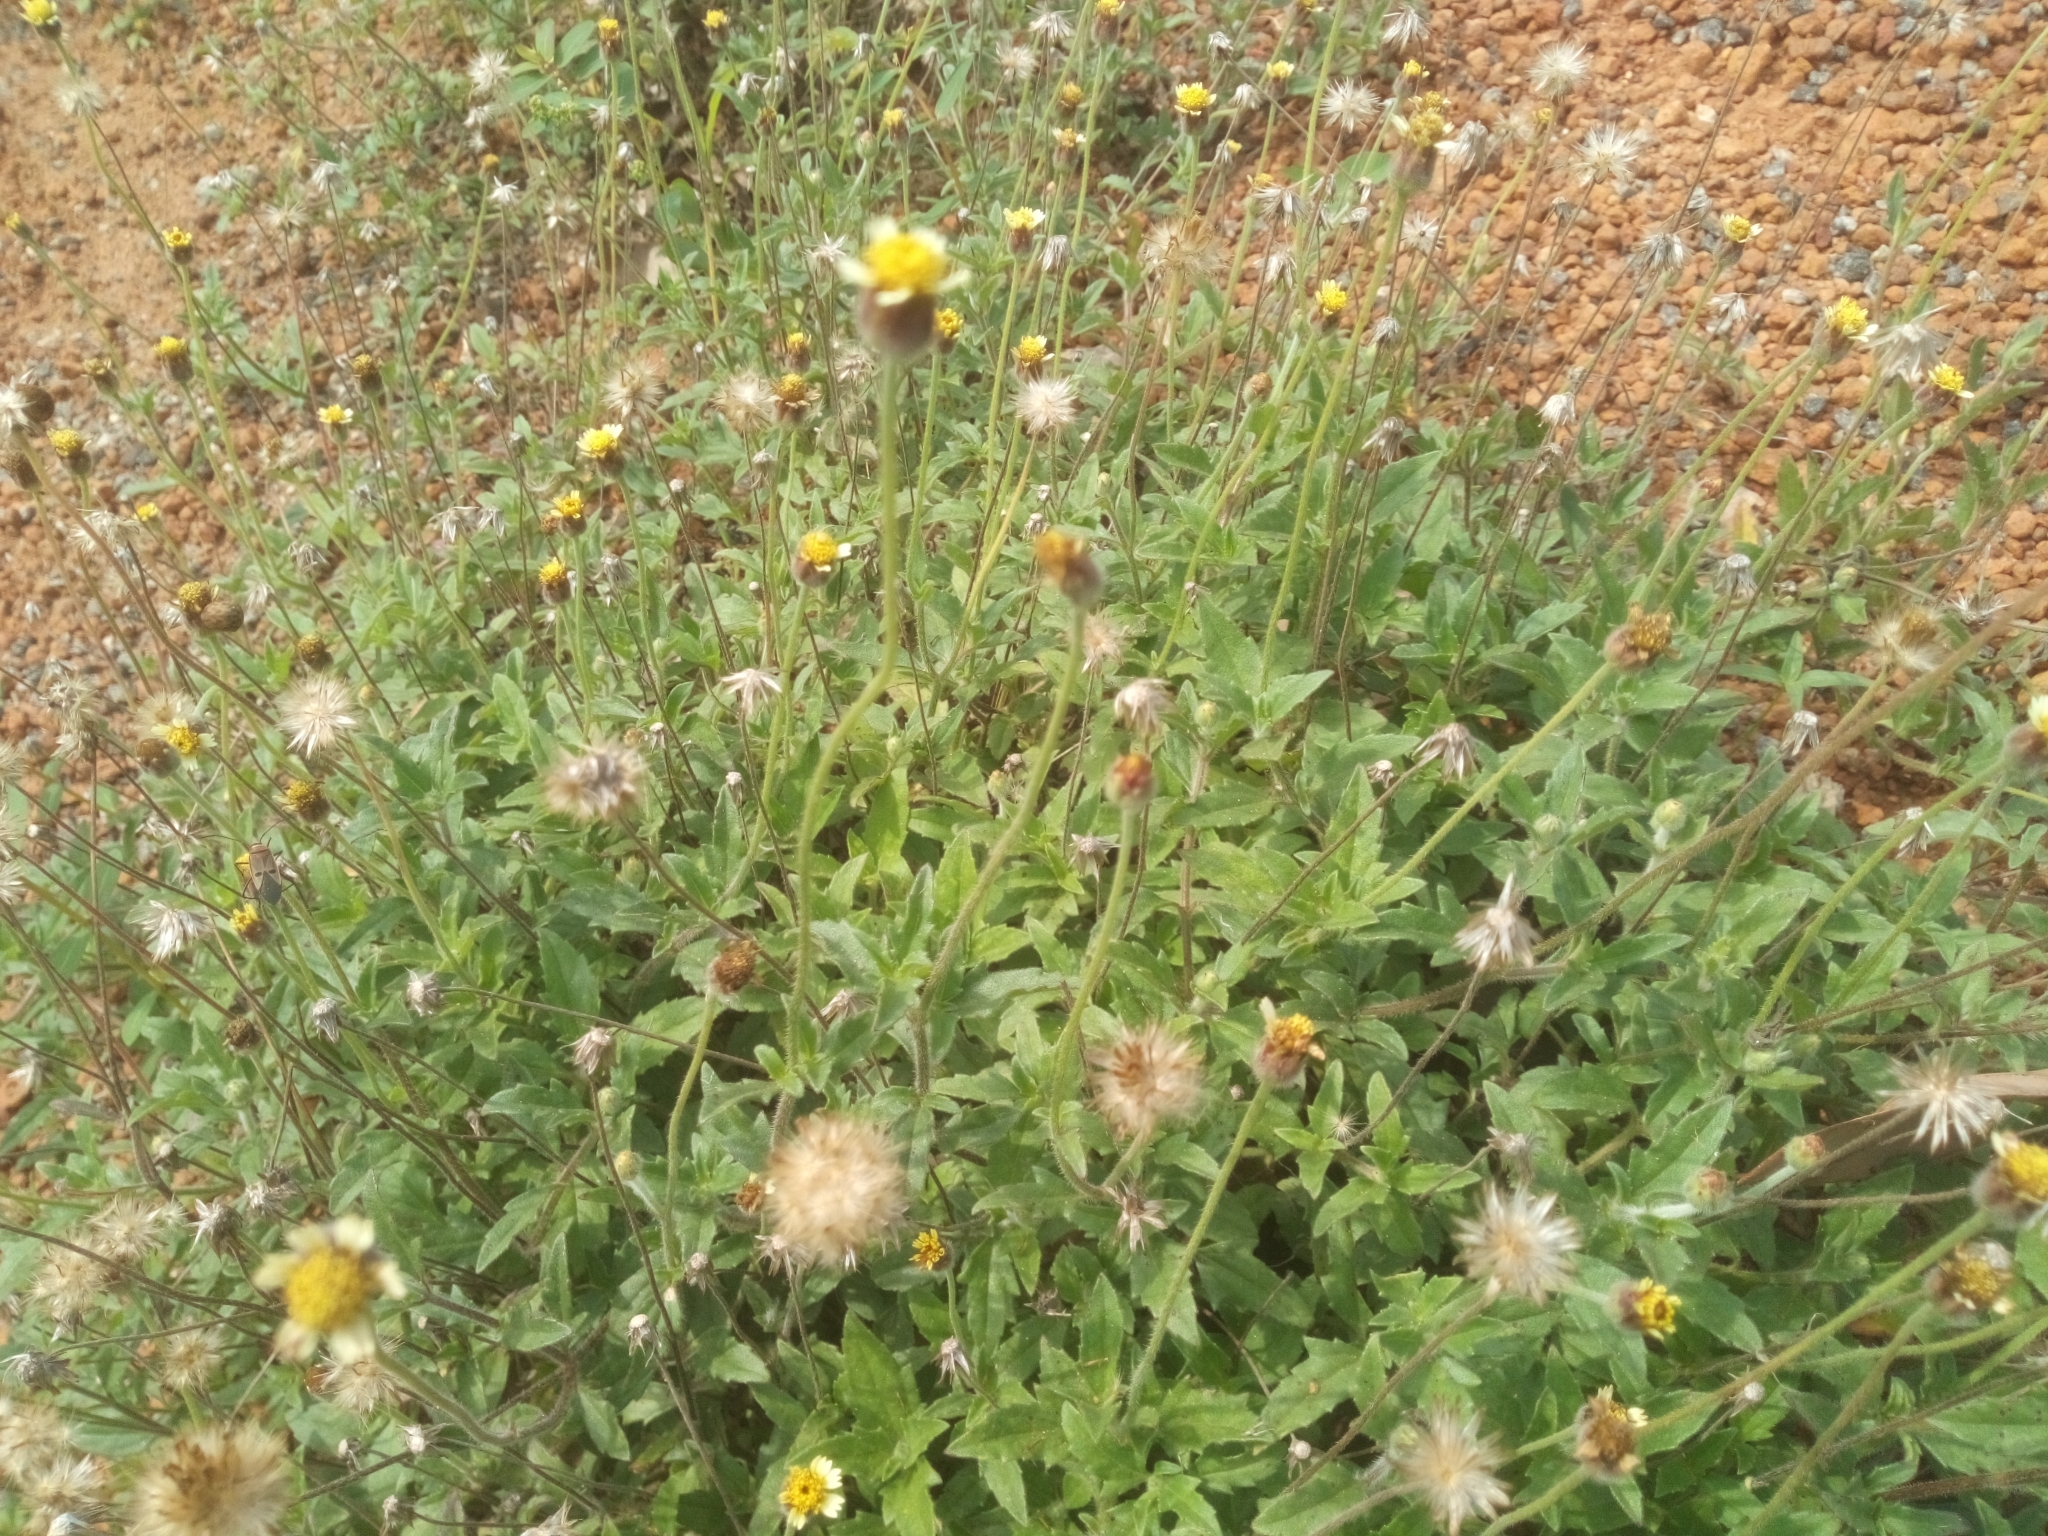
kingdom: Plantae
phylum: Tracheophyta
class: Magnoliopsida
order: Asterales
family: Asteraceae
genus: Tridax
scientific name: Tridax procumbens
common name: Coatbuttons
